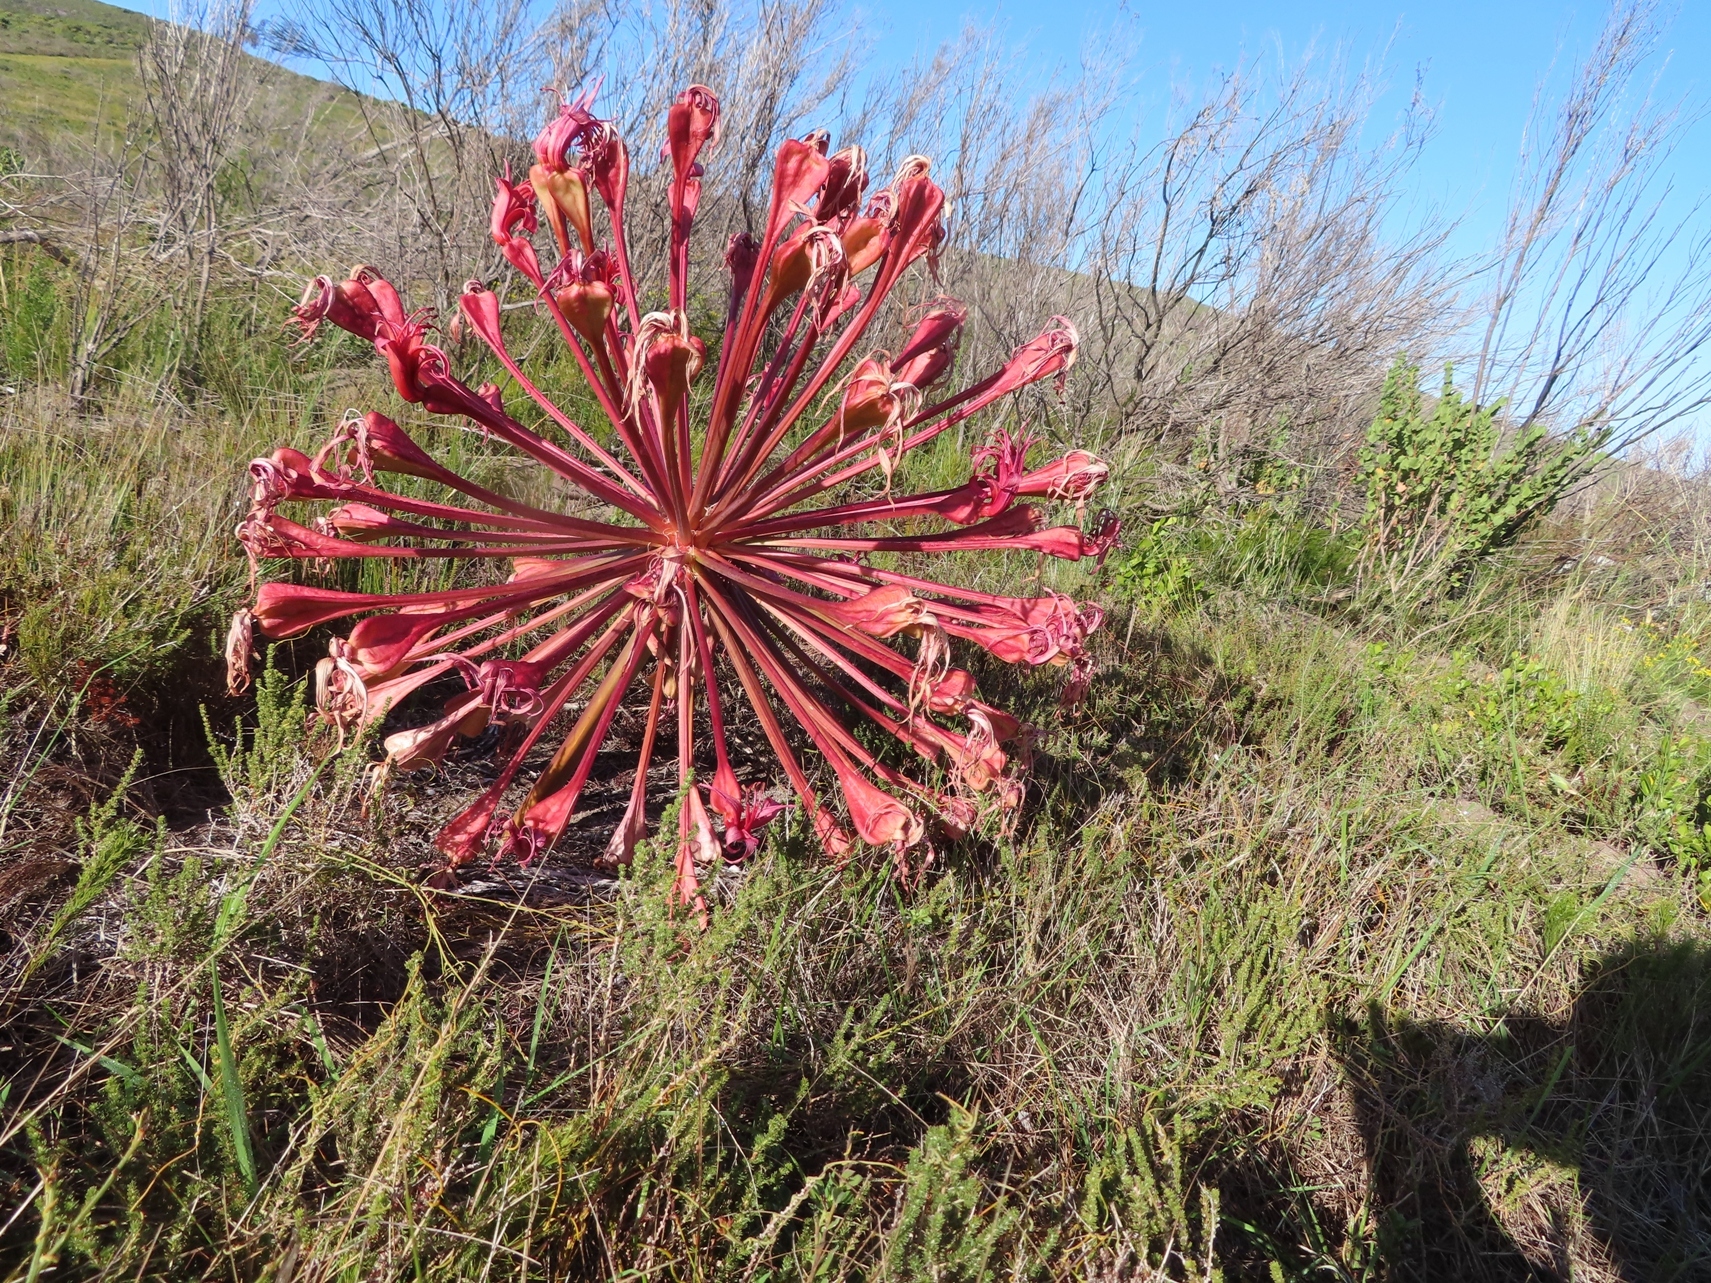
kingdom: Plantae
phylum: Tracheophyta
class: Liliopsida
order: Asparagales
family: Amaryllidaceae
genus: Brunsvigia
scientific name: Brunsvigia orientalis
